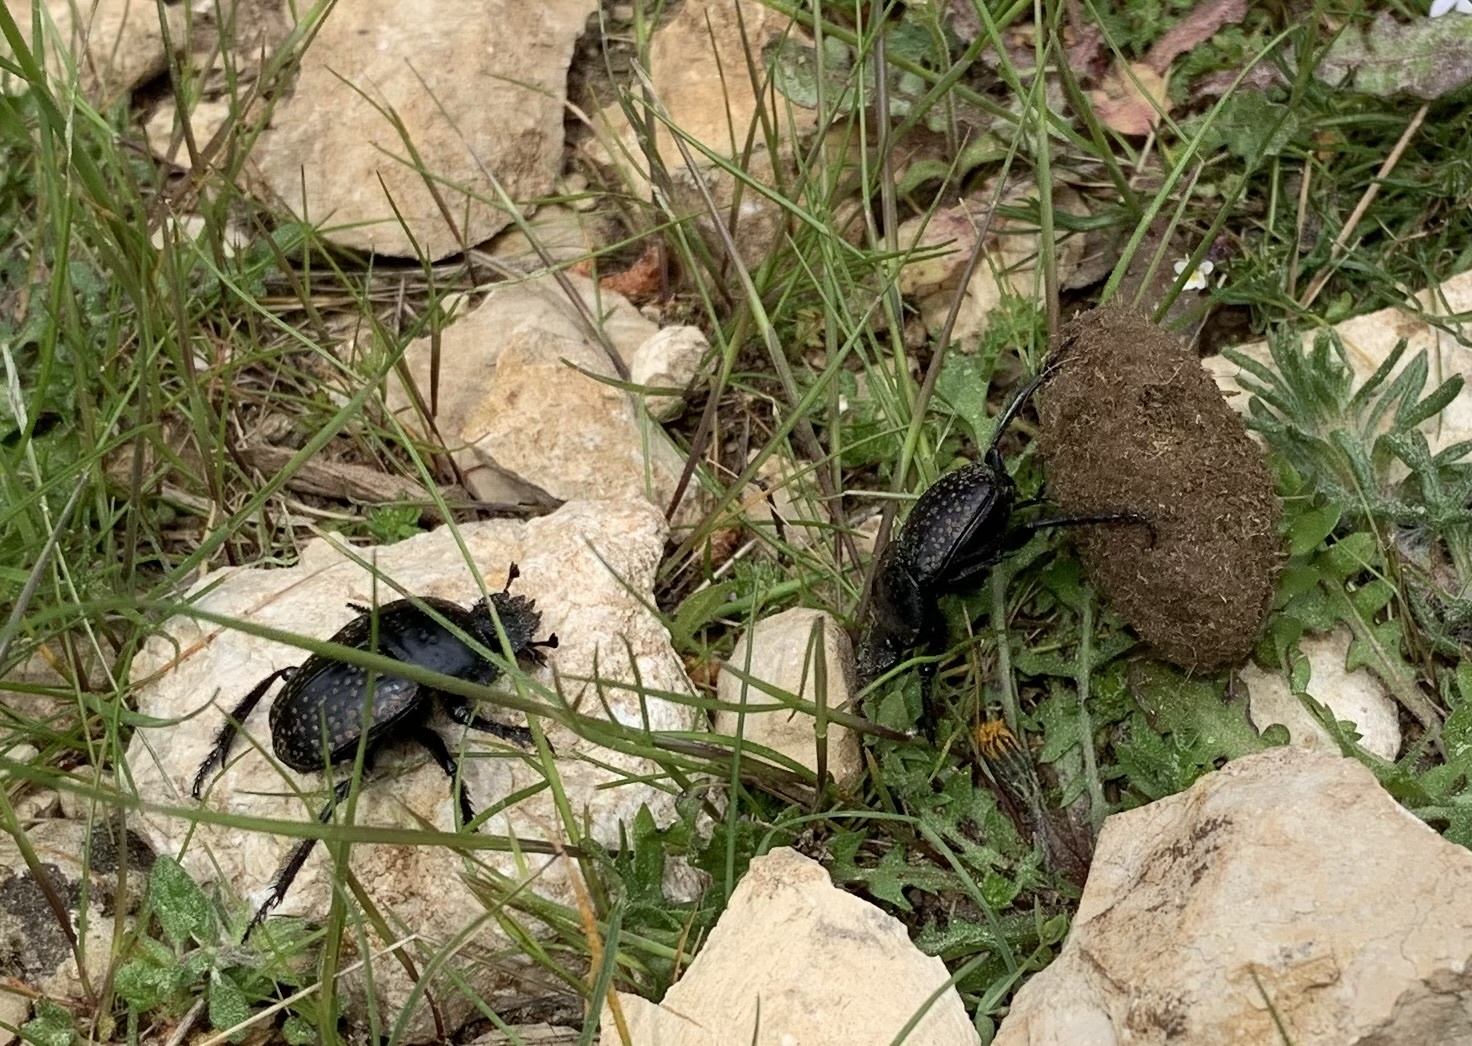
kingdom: Animalia
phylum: Arthropoda
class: Insecta
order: Coleoptera
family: Scarabaeidae
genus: Ateuchetus
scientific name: Ateuchetus
